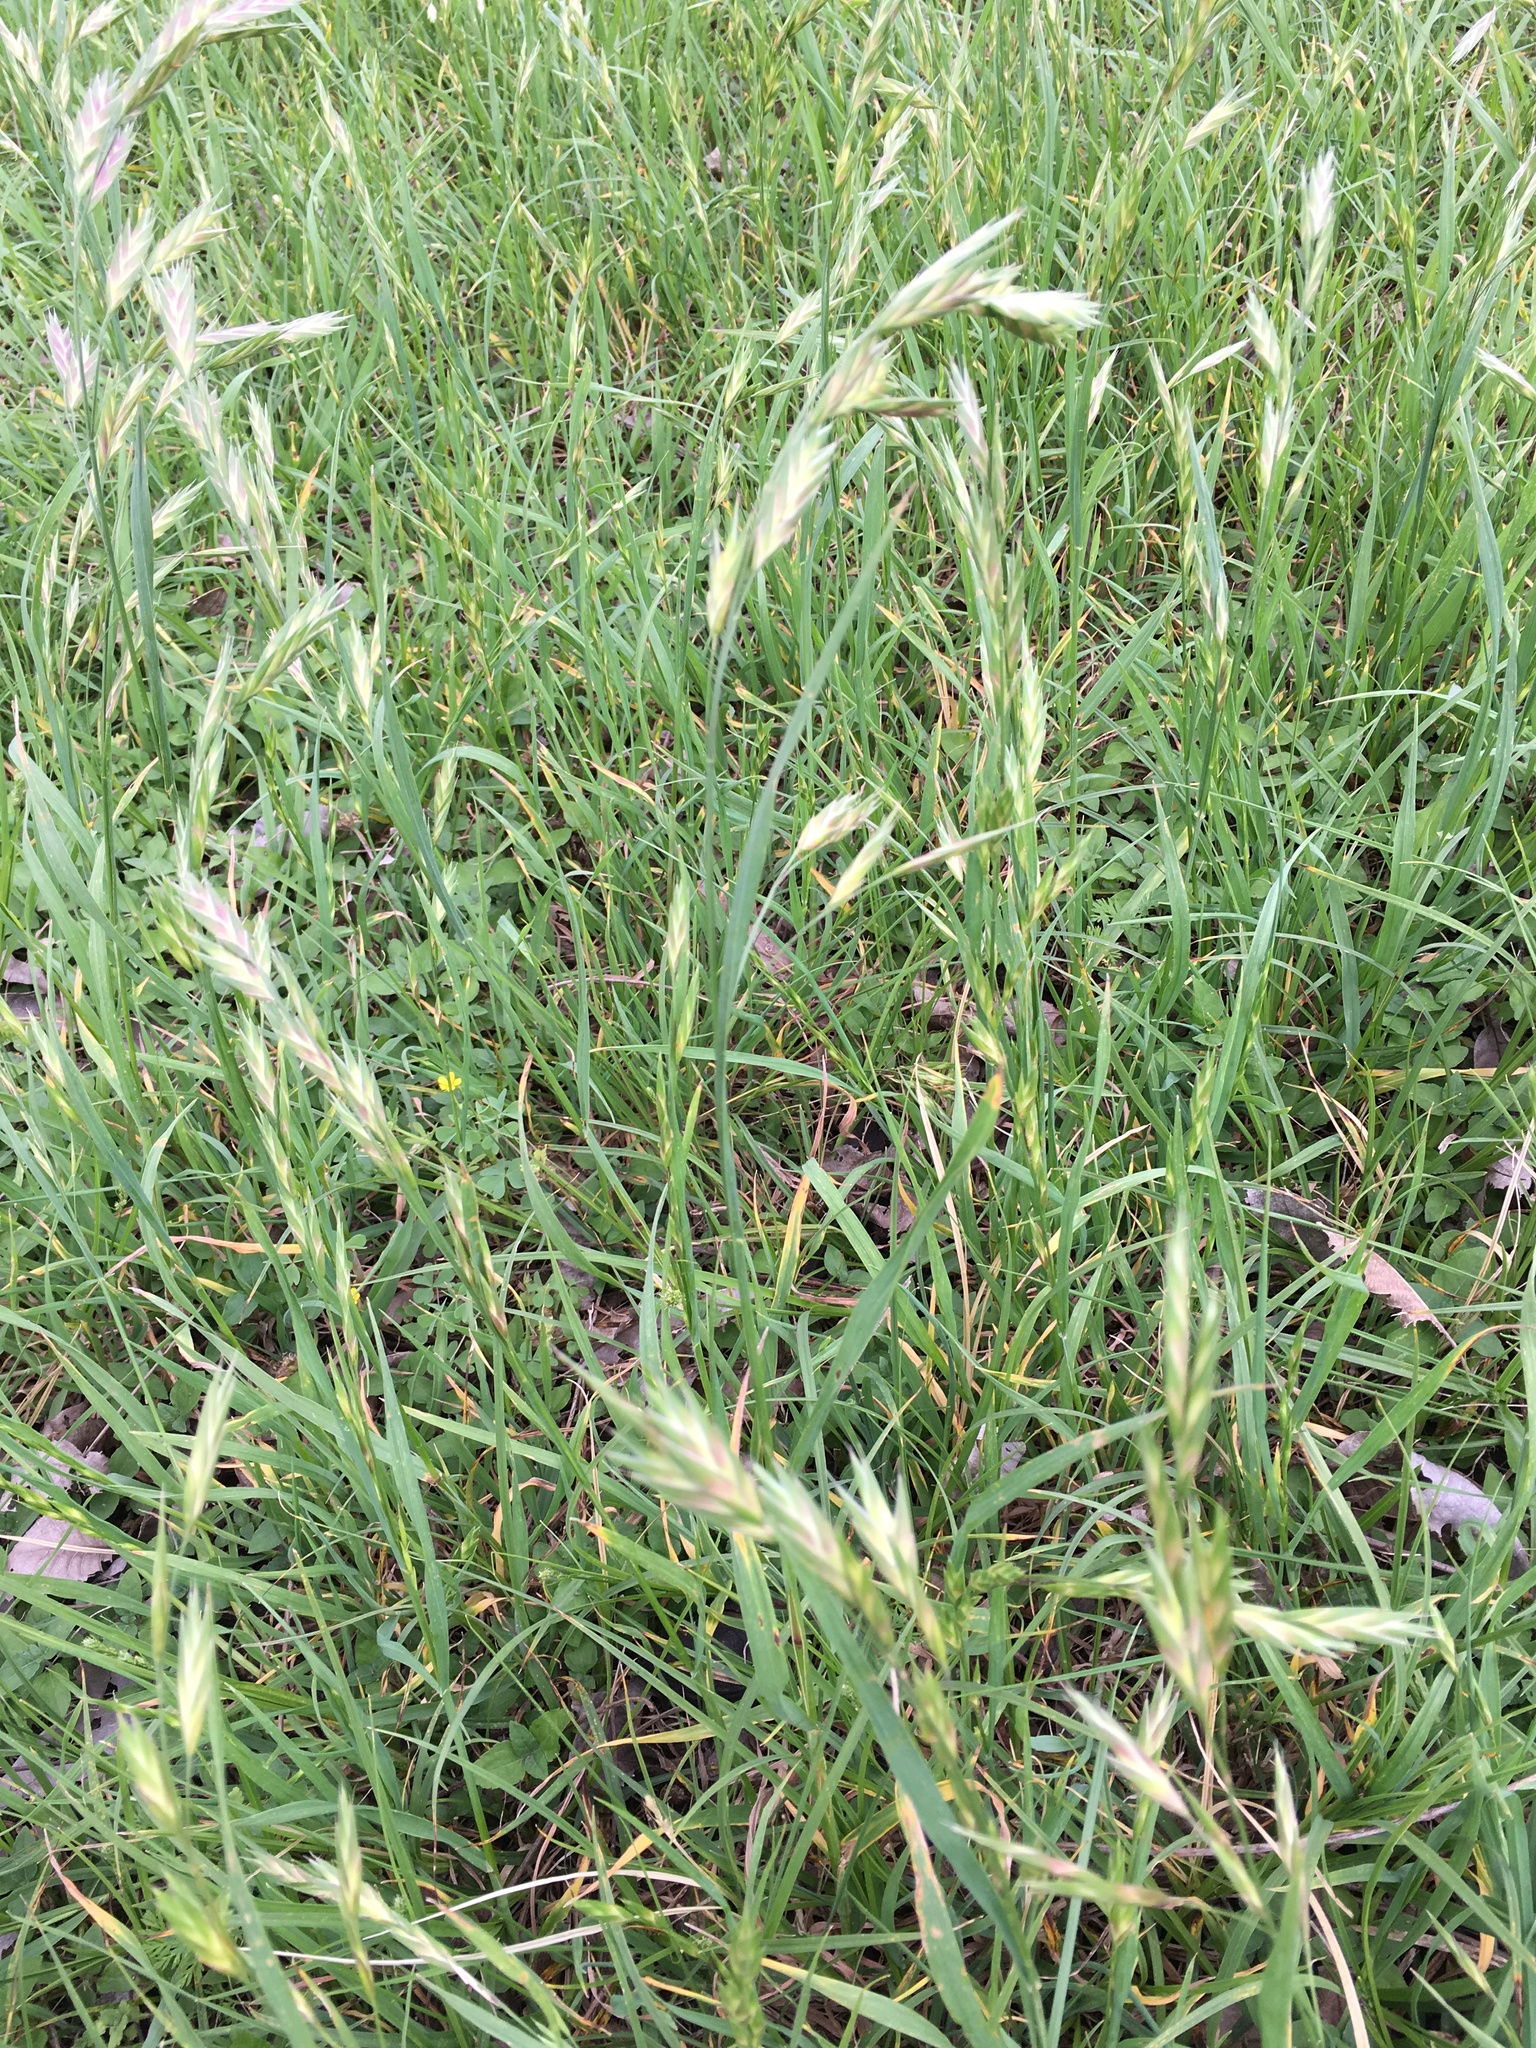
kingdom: Plantae
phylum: Tracheophyta
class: Liliopsida
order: Poales
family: Poaceae
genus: Bromus
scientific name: Bromus catharticus
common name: Rescuegrass
